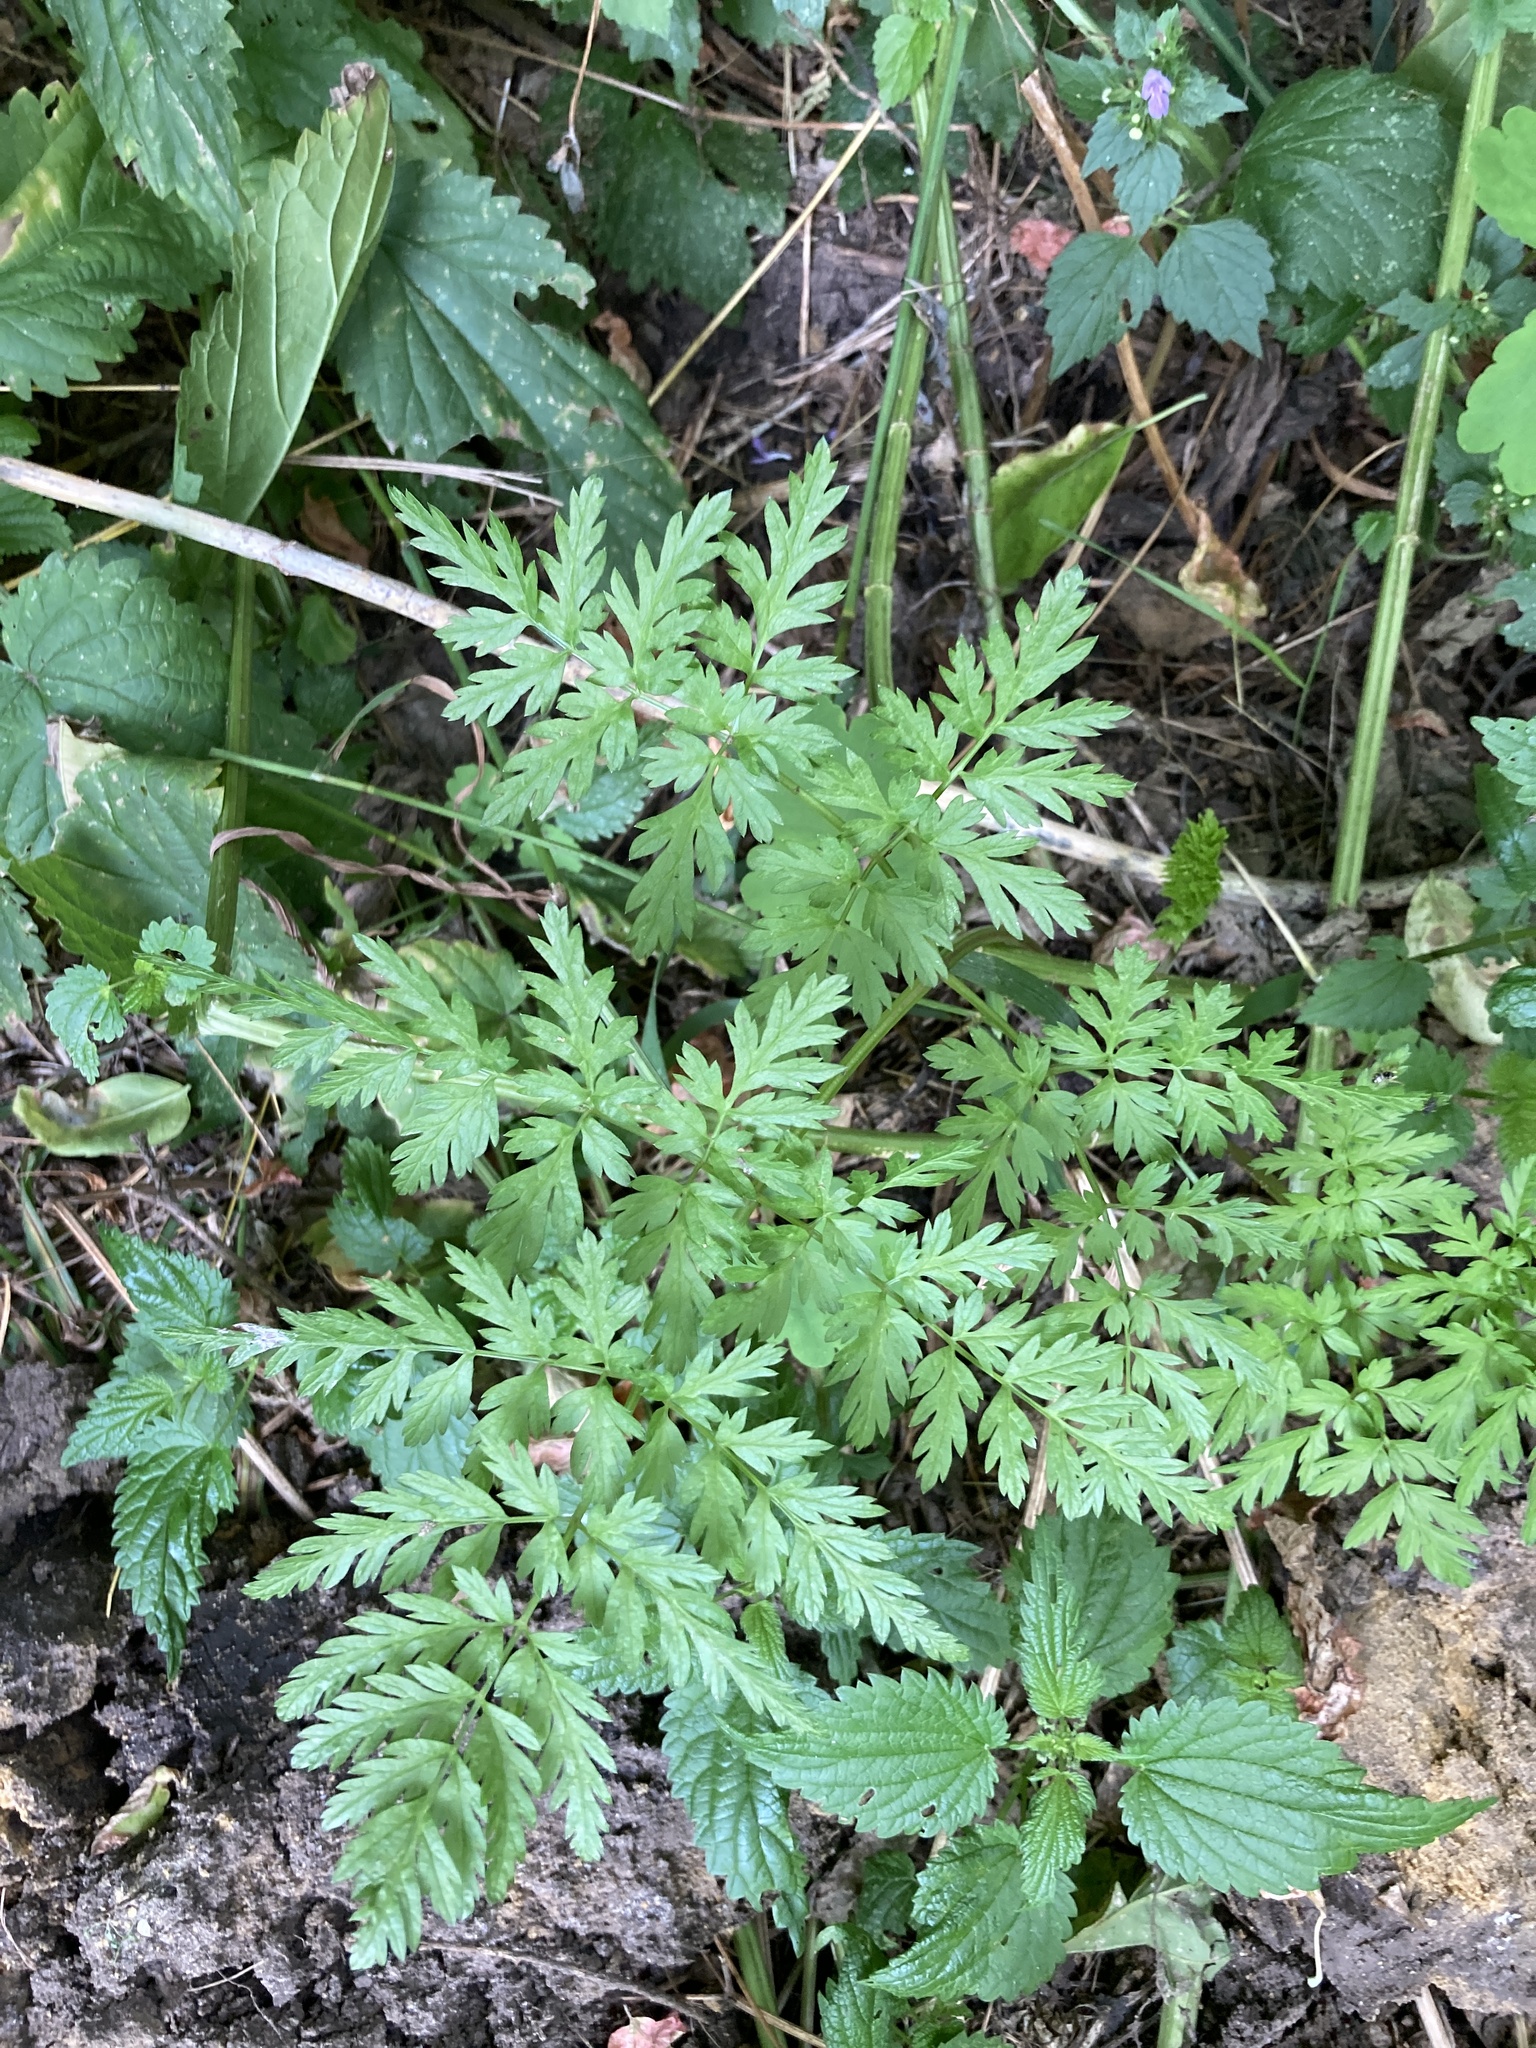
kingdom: Plantae
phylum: Tracheophyta
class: Magnoliopsida
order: Apiales
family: Apiaceae
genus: Anthriscus
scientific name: Anthriscus sylvestris
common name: Cow parsley
